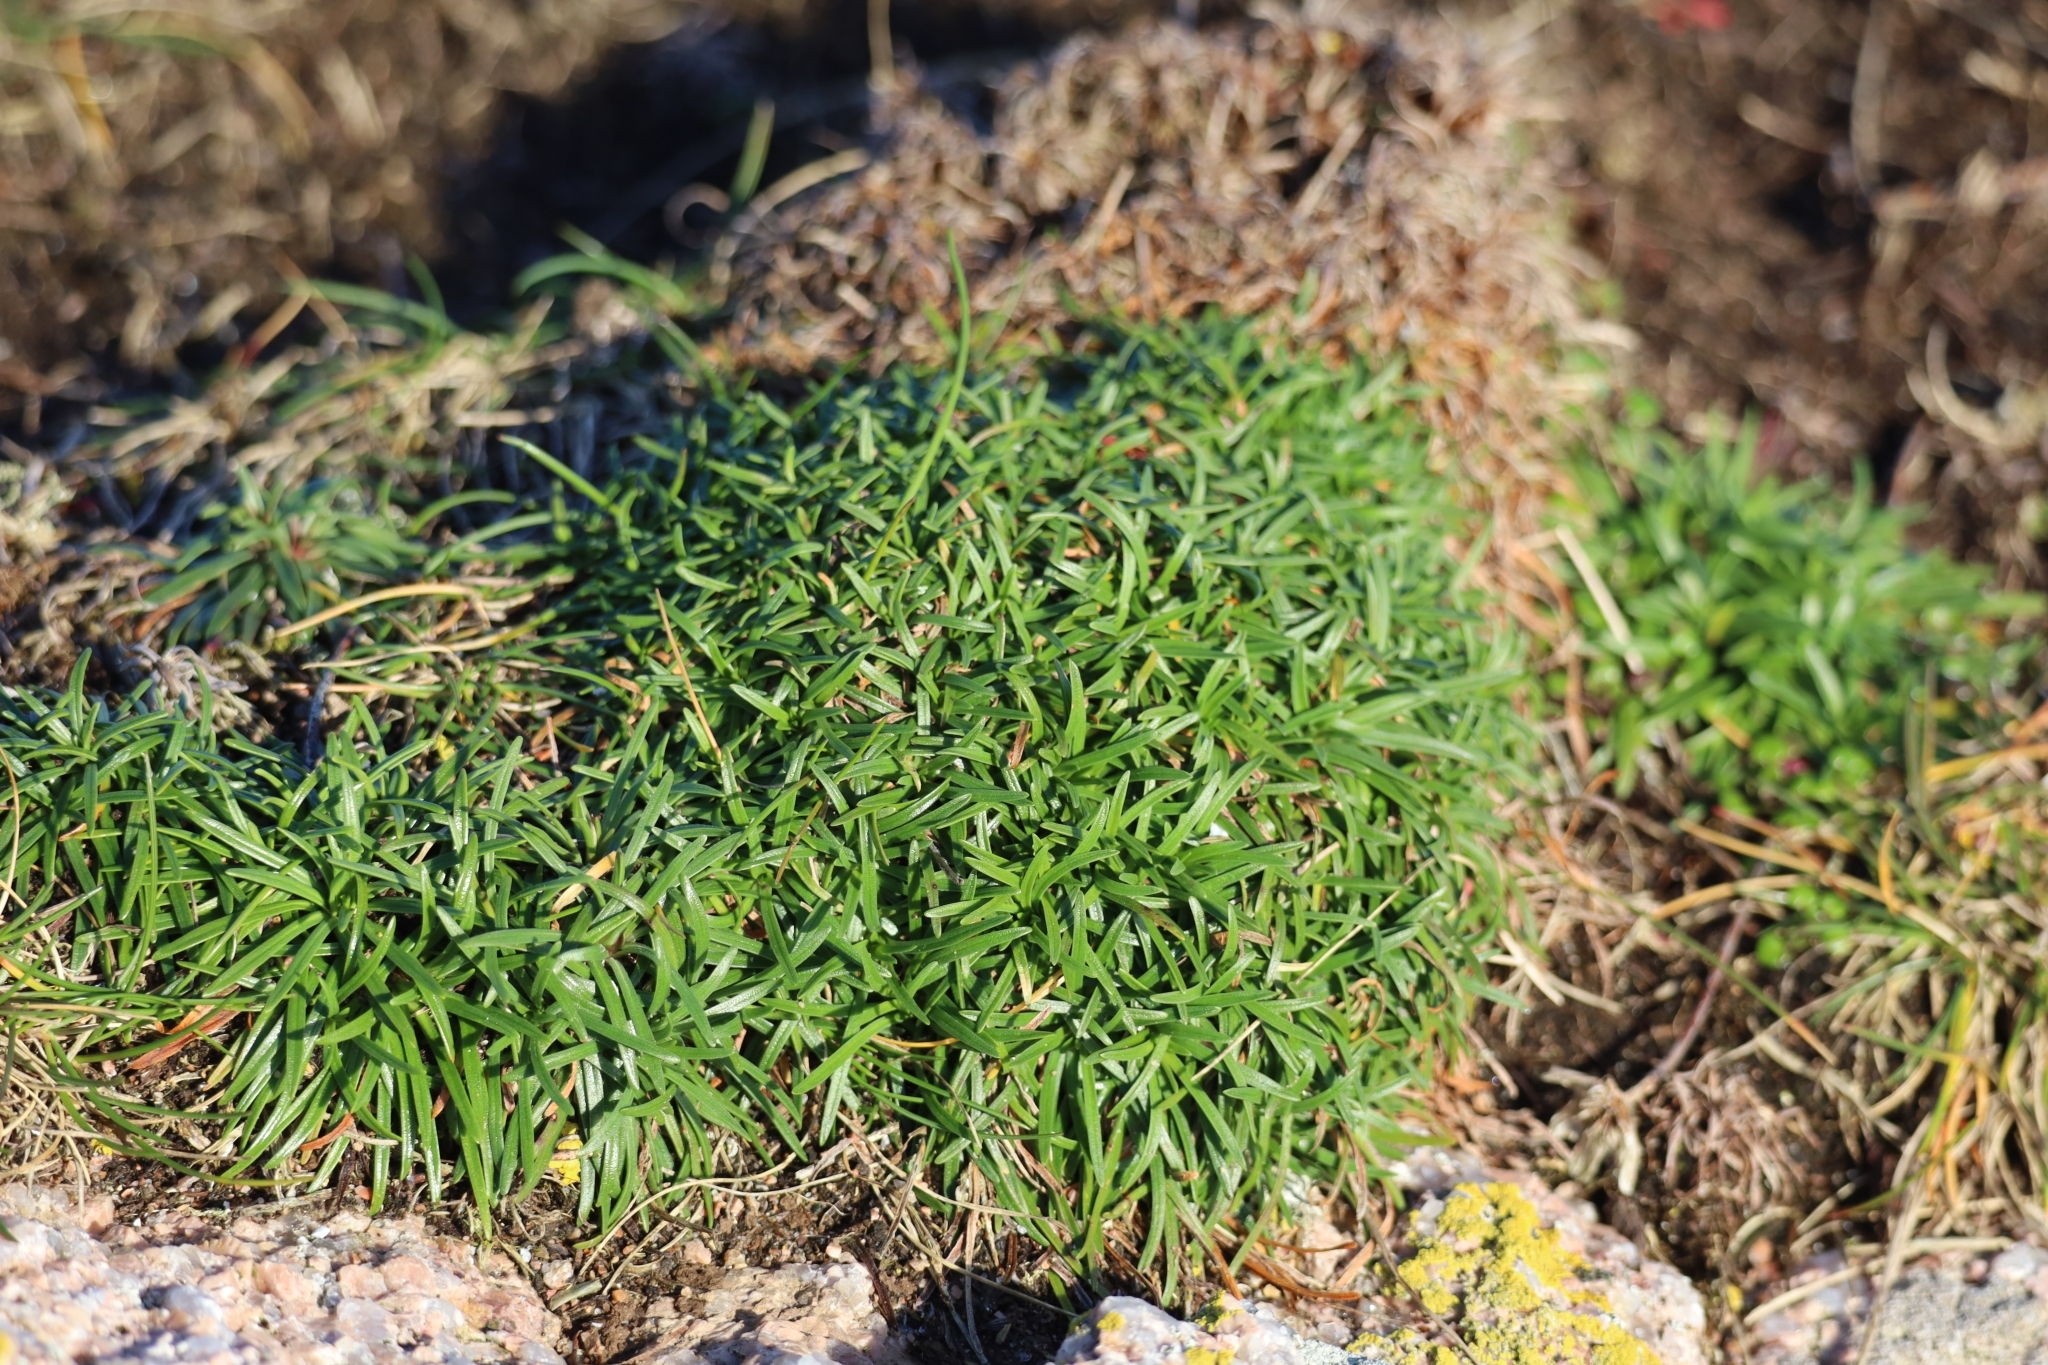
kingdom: Plantae
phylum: Tracheophyta
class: Magnoliopsida
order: Caryophyllales
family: Plumbaginaceae
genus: Armeria
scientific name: Armeria maritima
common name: Thrift
